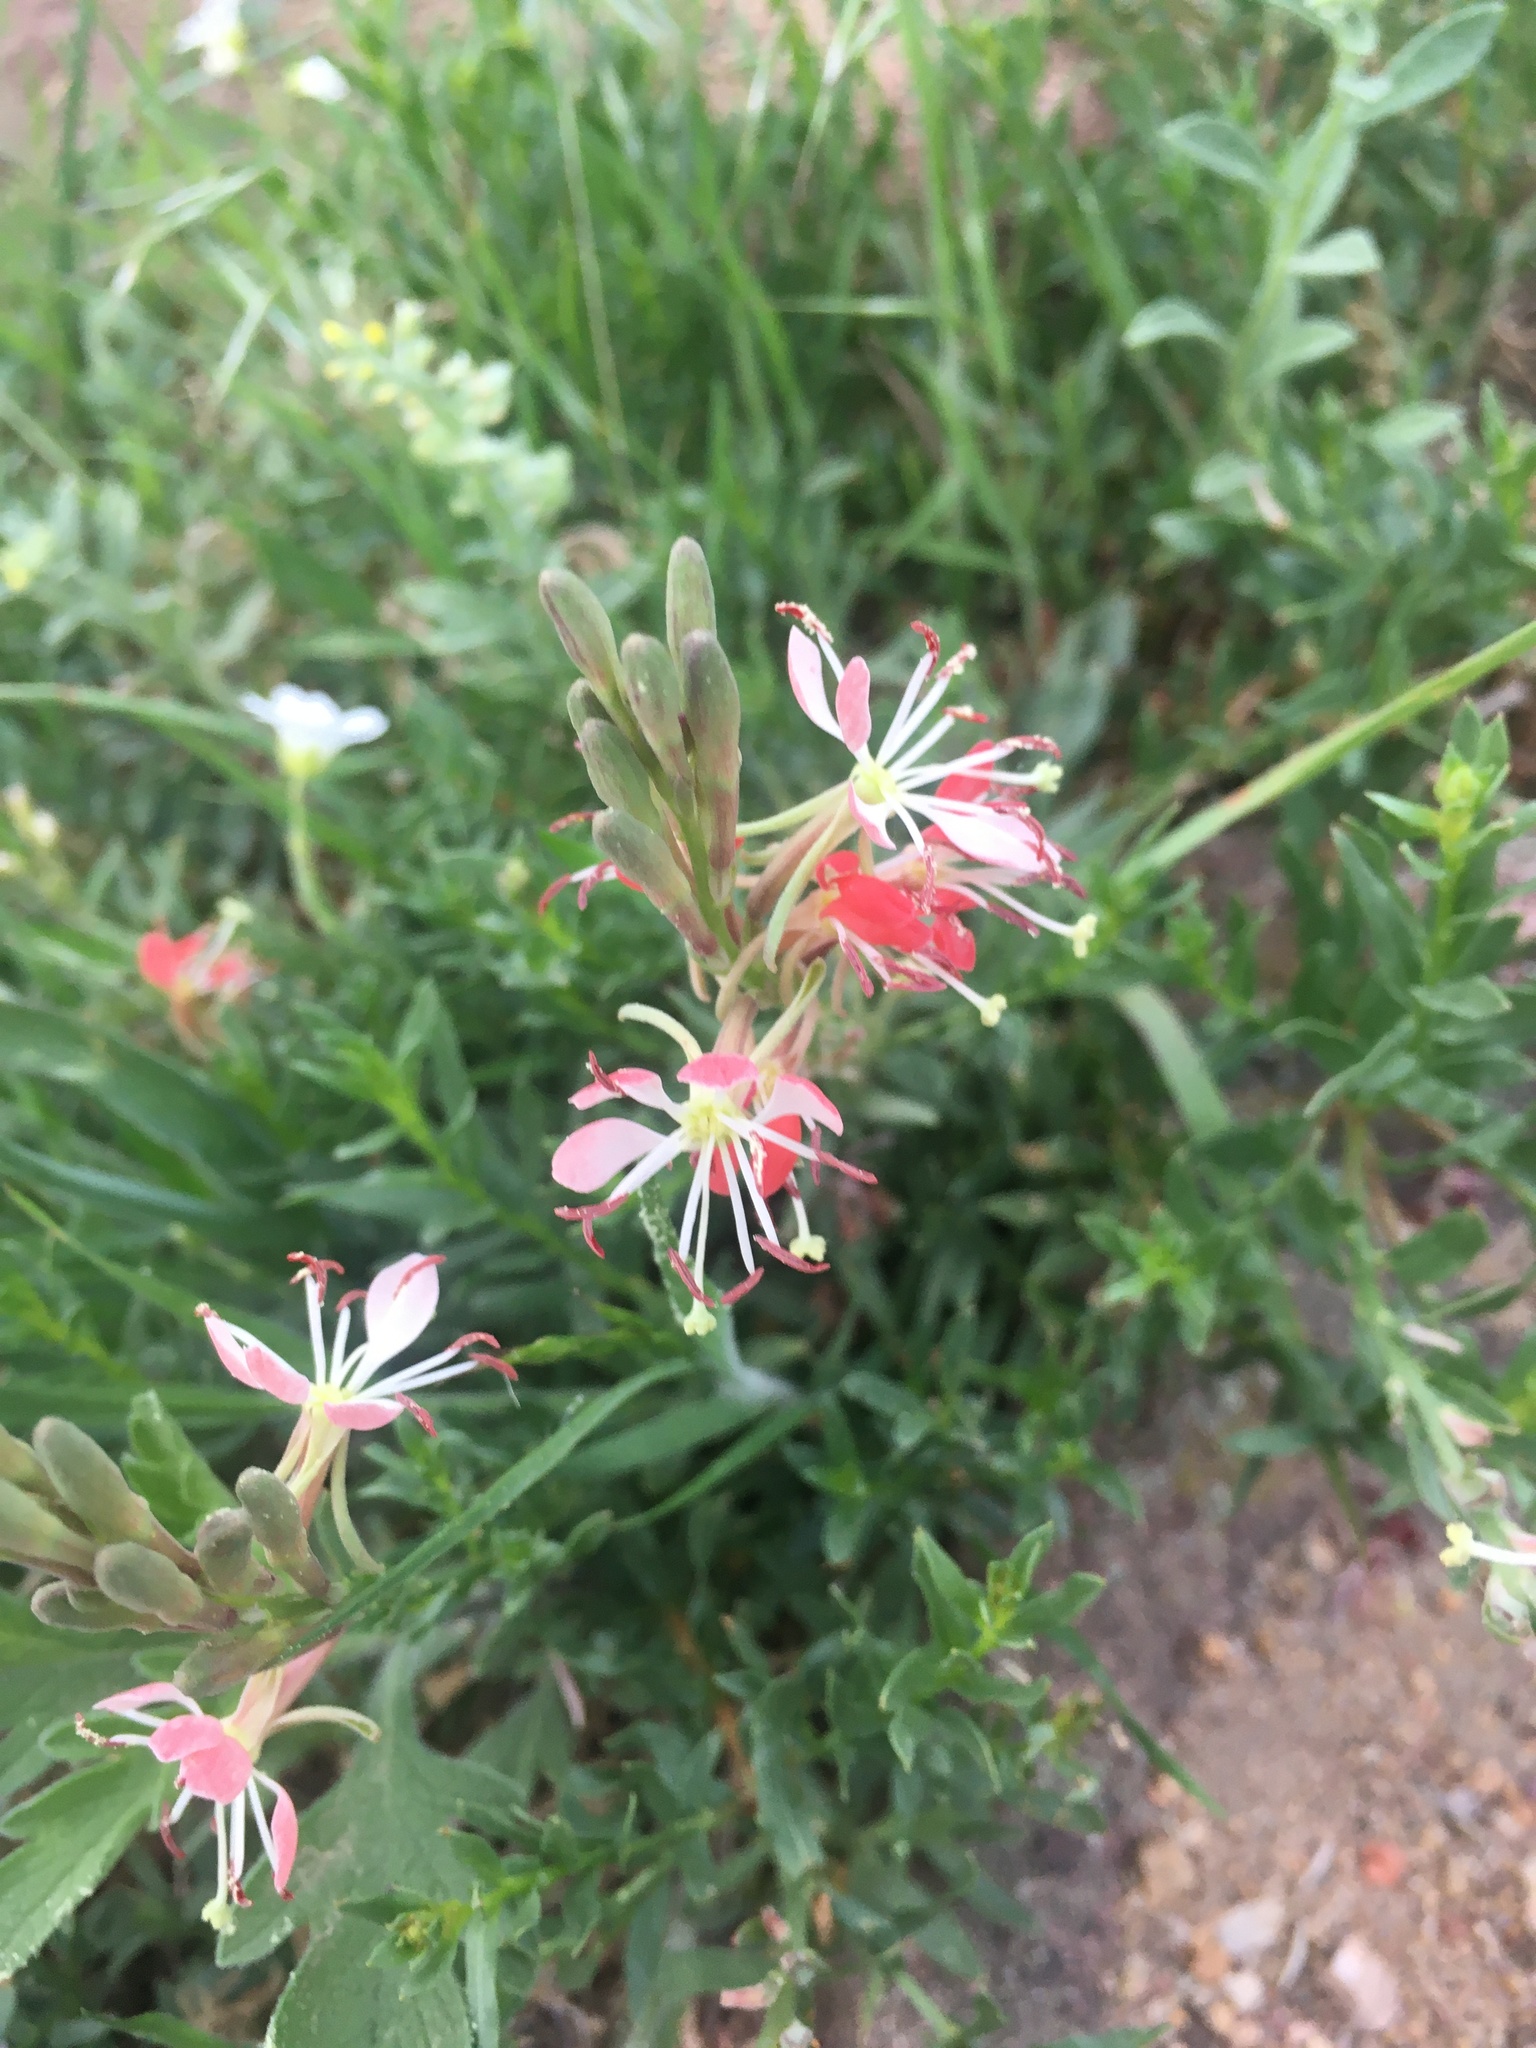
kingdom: Plantae
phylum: Tracheophyta
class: Magnoliopsida
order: Myrtales
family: Onagraceae
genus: Oenothera
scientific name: Oenothera suffrutescens
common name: Scarlet beeblossom
